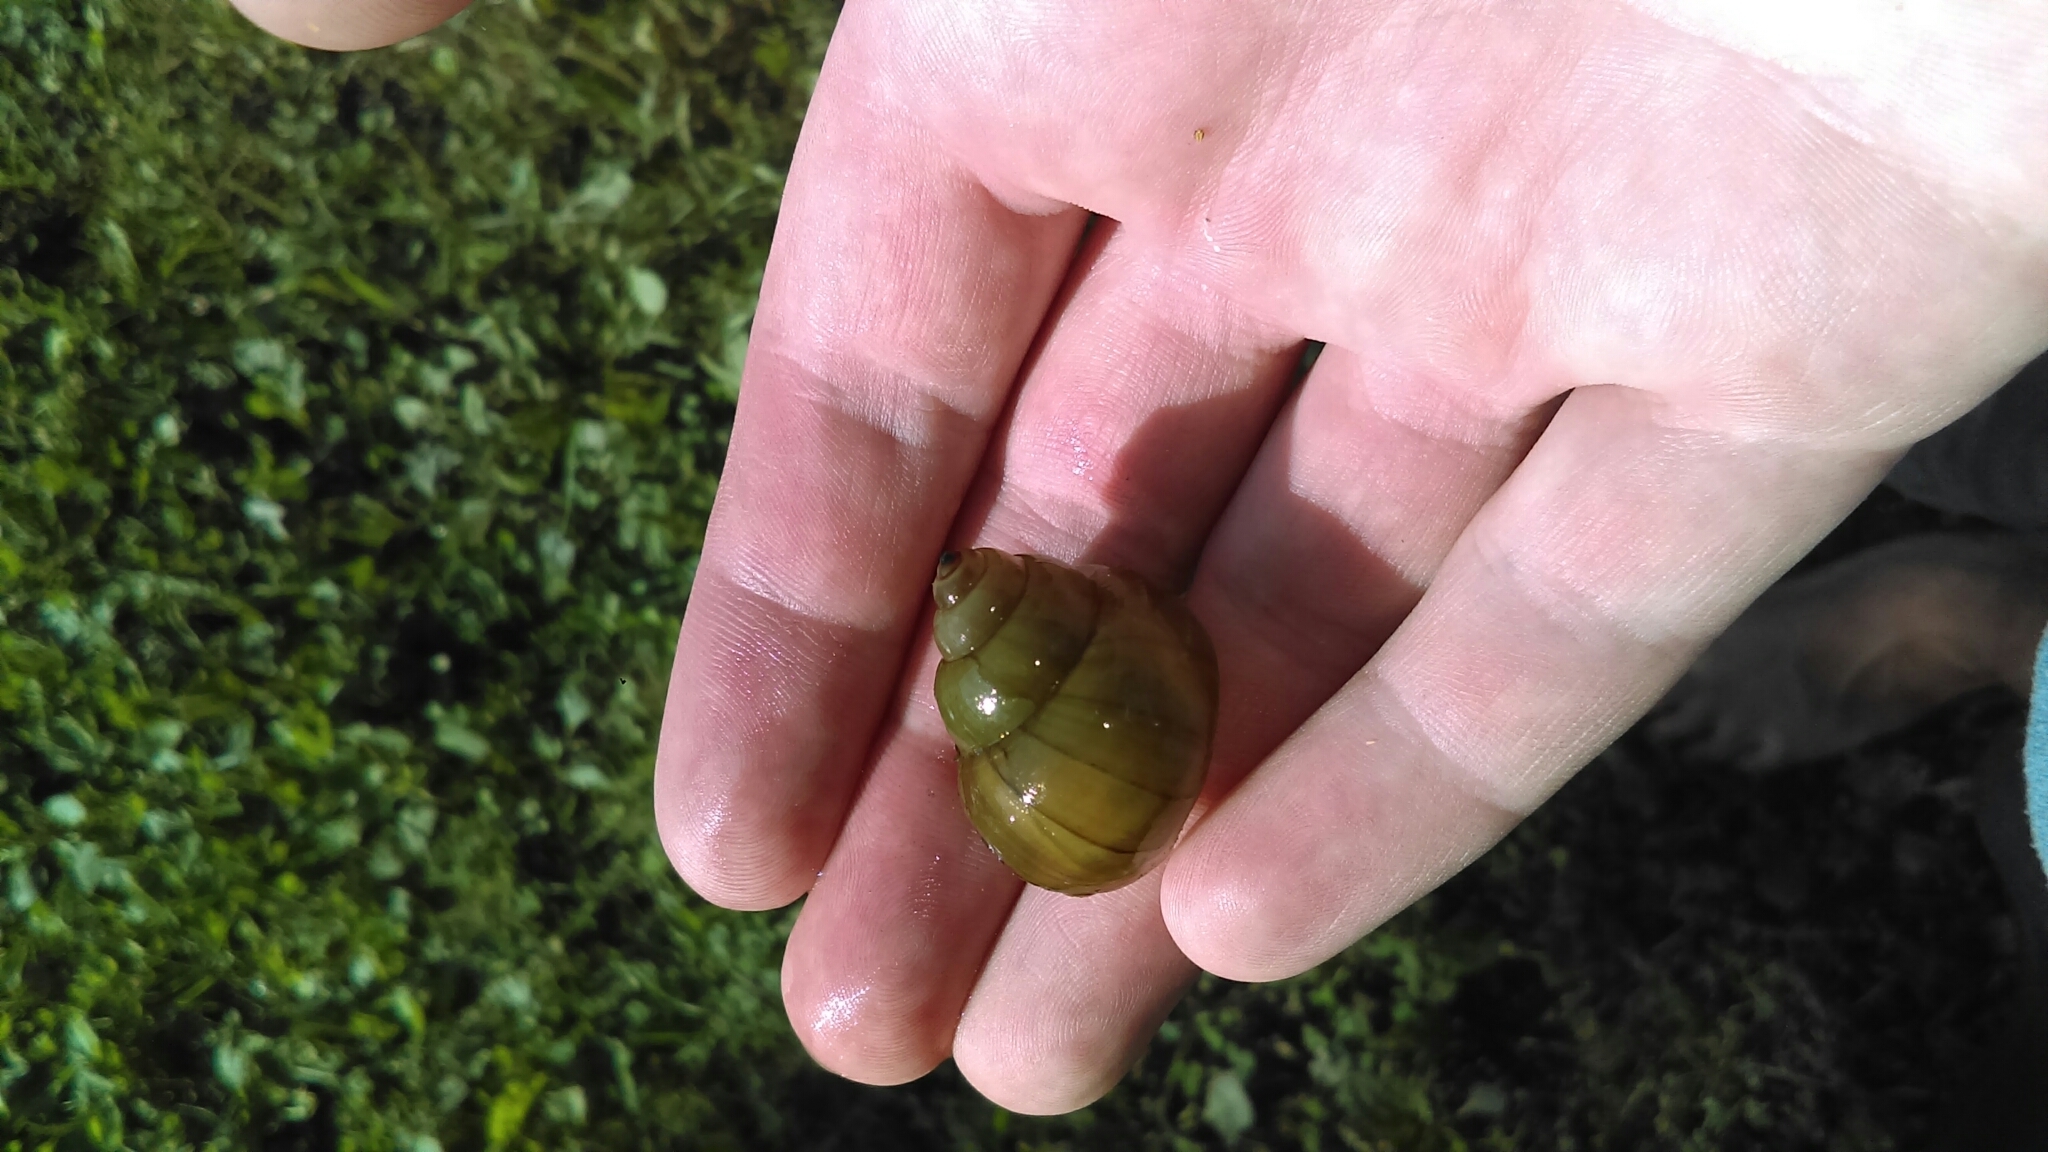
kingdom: Animalia
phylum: Mollusca
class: Gastropoda
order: Architaenioglossa
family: Viviparidae
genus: Cipangopaludina
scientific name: Cipangopaludina chinensis
